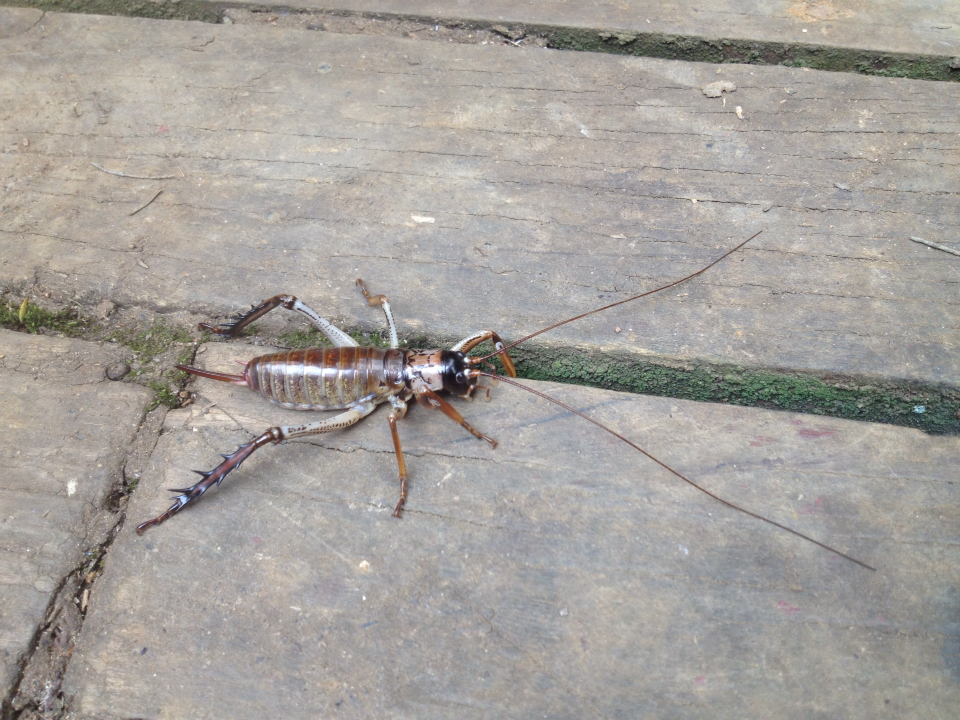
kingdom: Animalia
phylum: Arthropoda
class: Insecta
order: Orthoptera
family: Anostostomatidae
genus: Hemideina
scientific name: Hemideina thoracica
